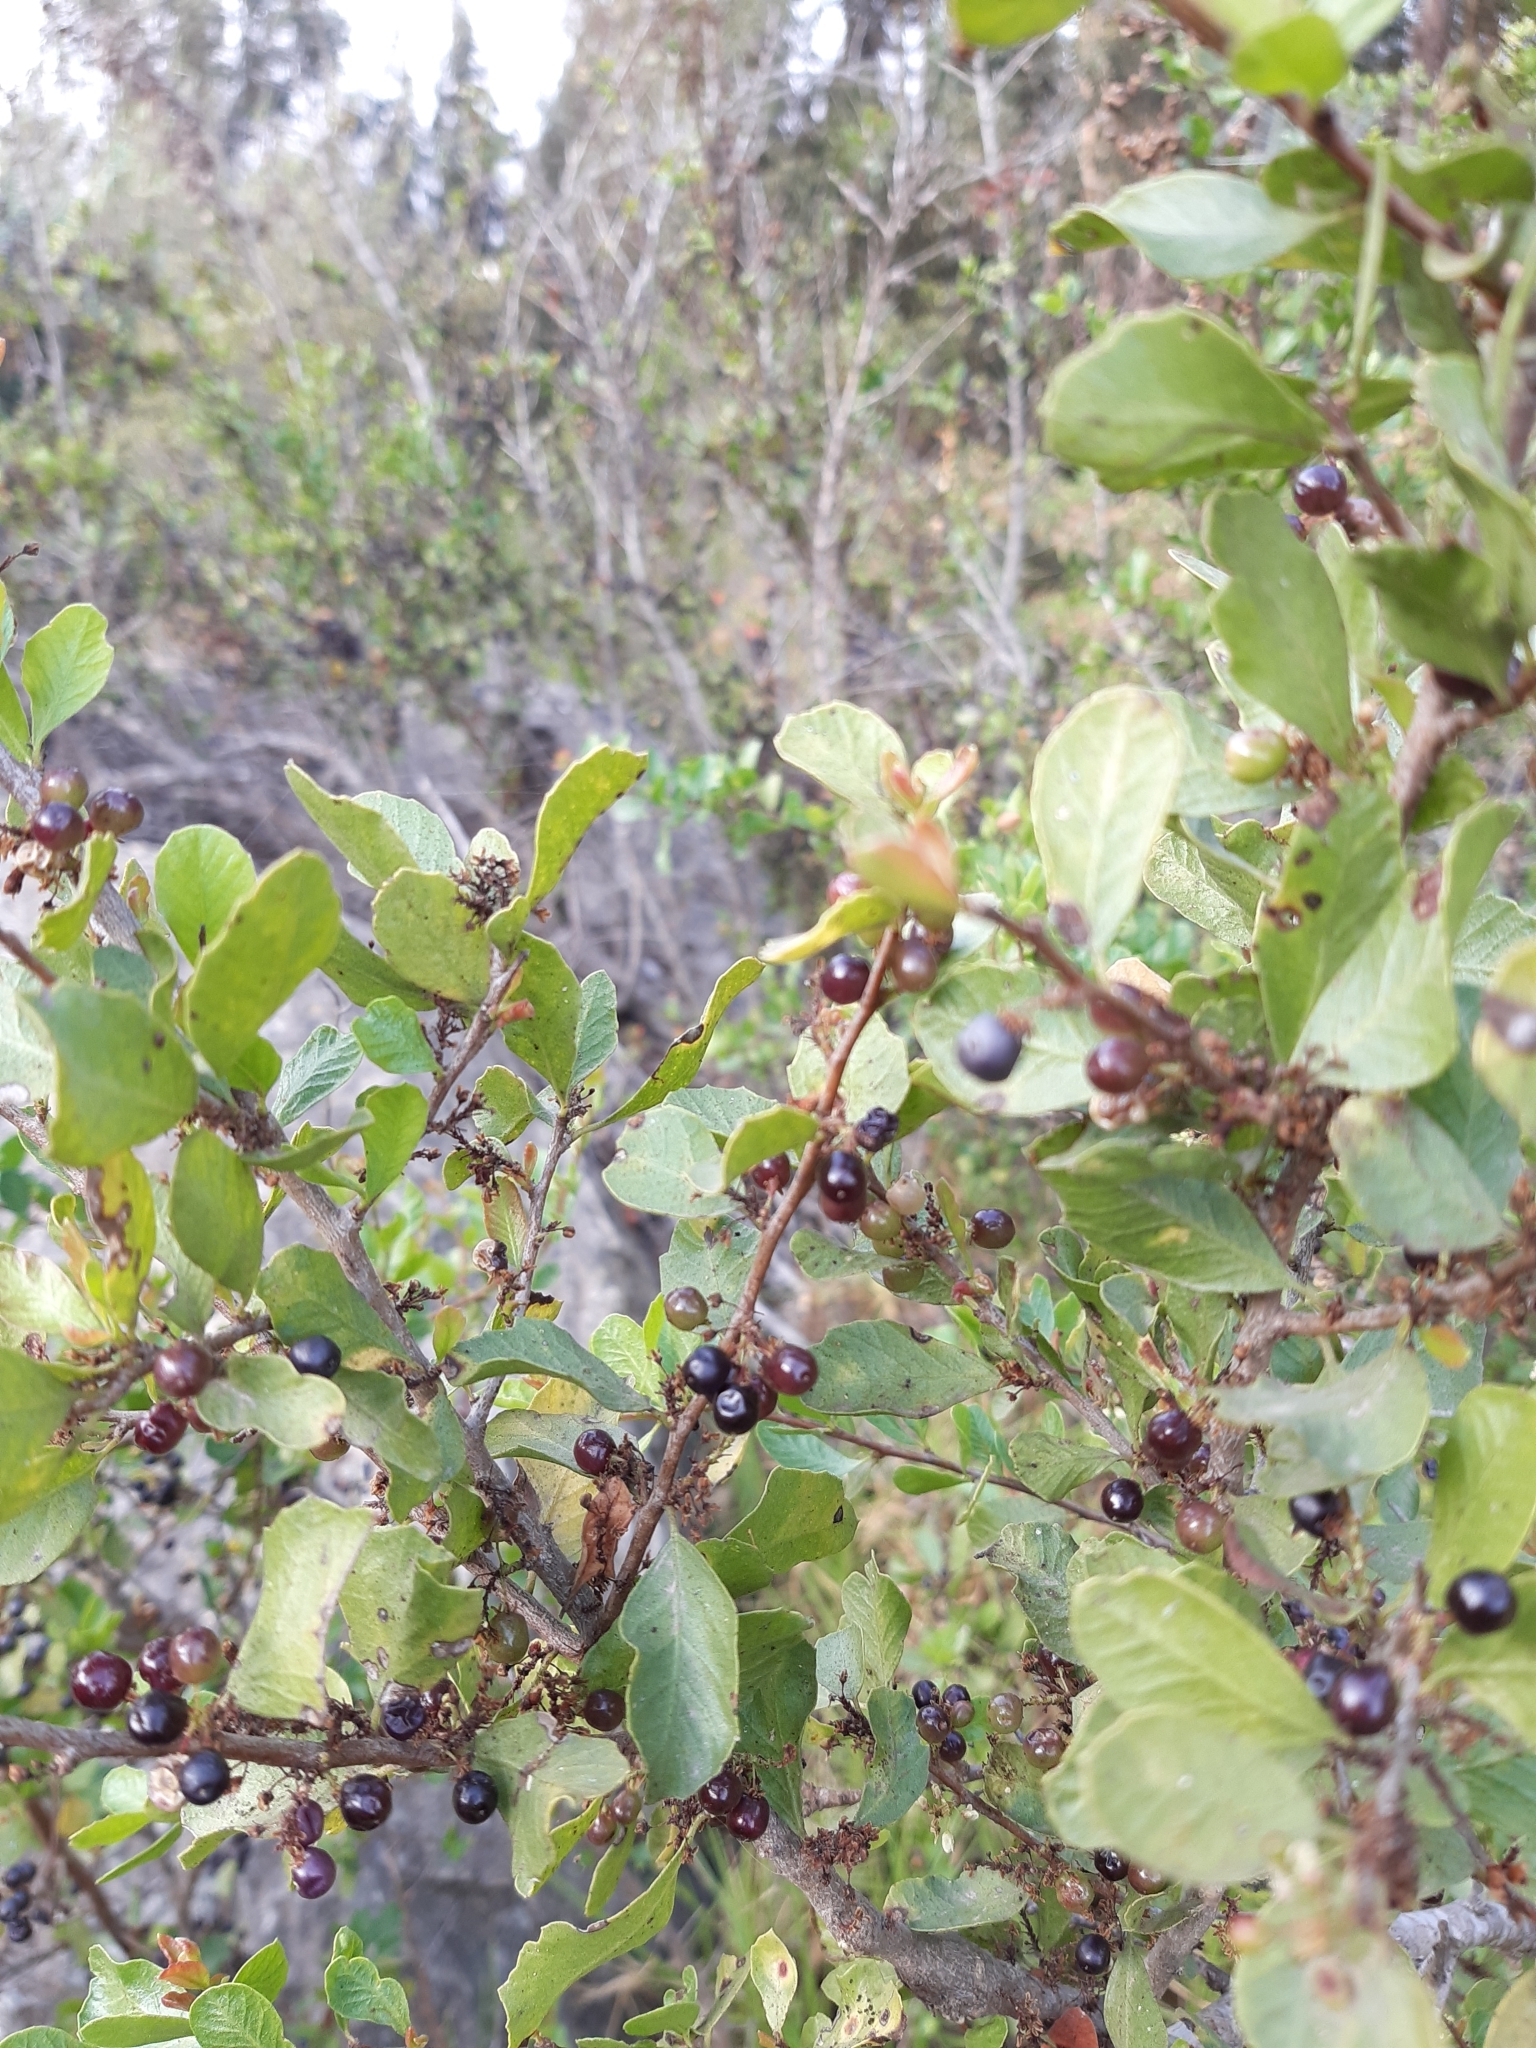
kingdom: Plantae
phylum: Tracheophyta
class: Magnoliopsida
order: Sapindales
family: Anacardiaceae
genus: Schinus
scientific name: Schinus polygama
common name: Hardee peppertree
